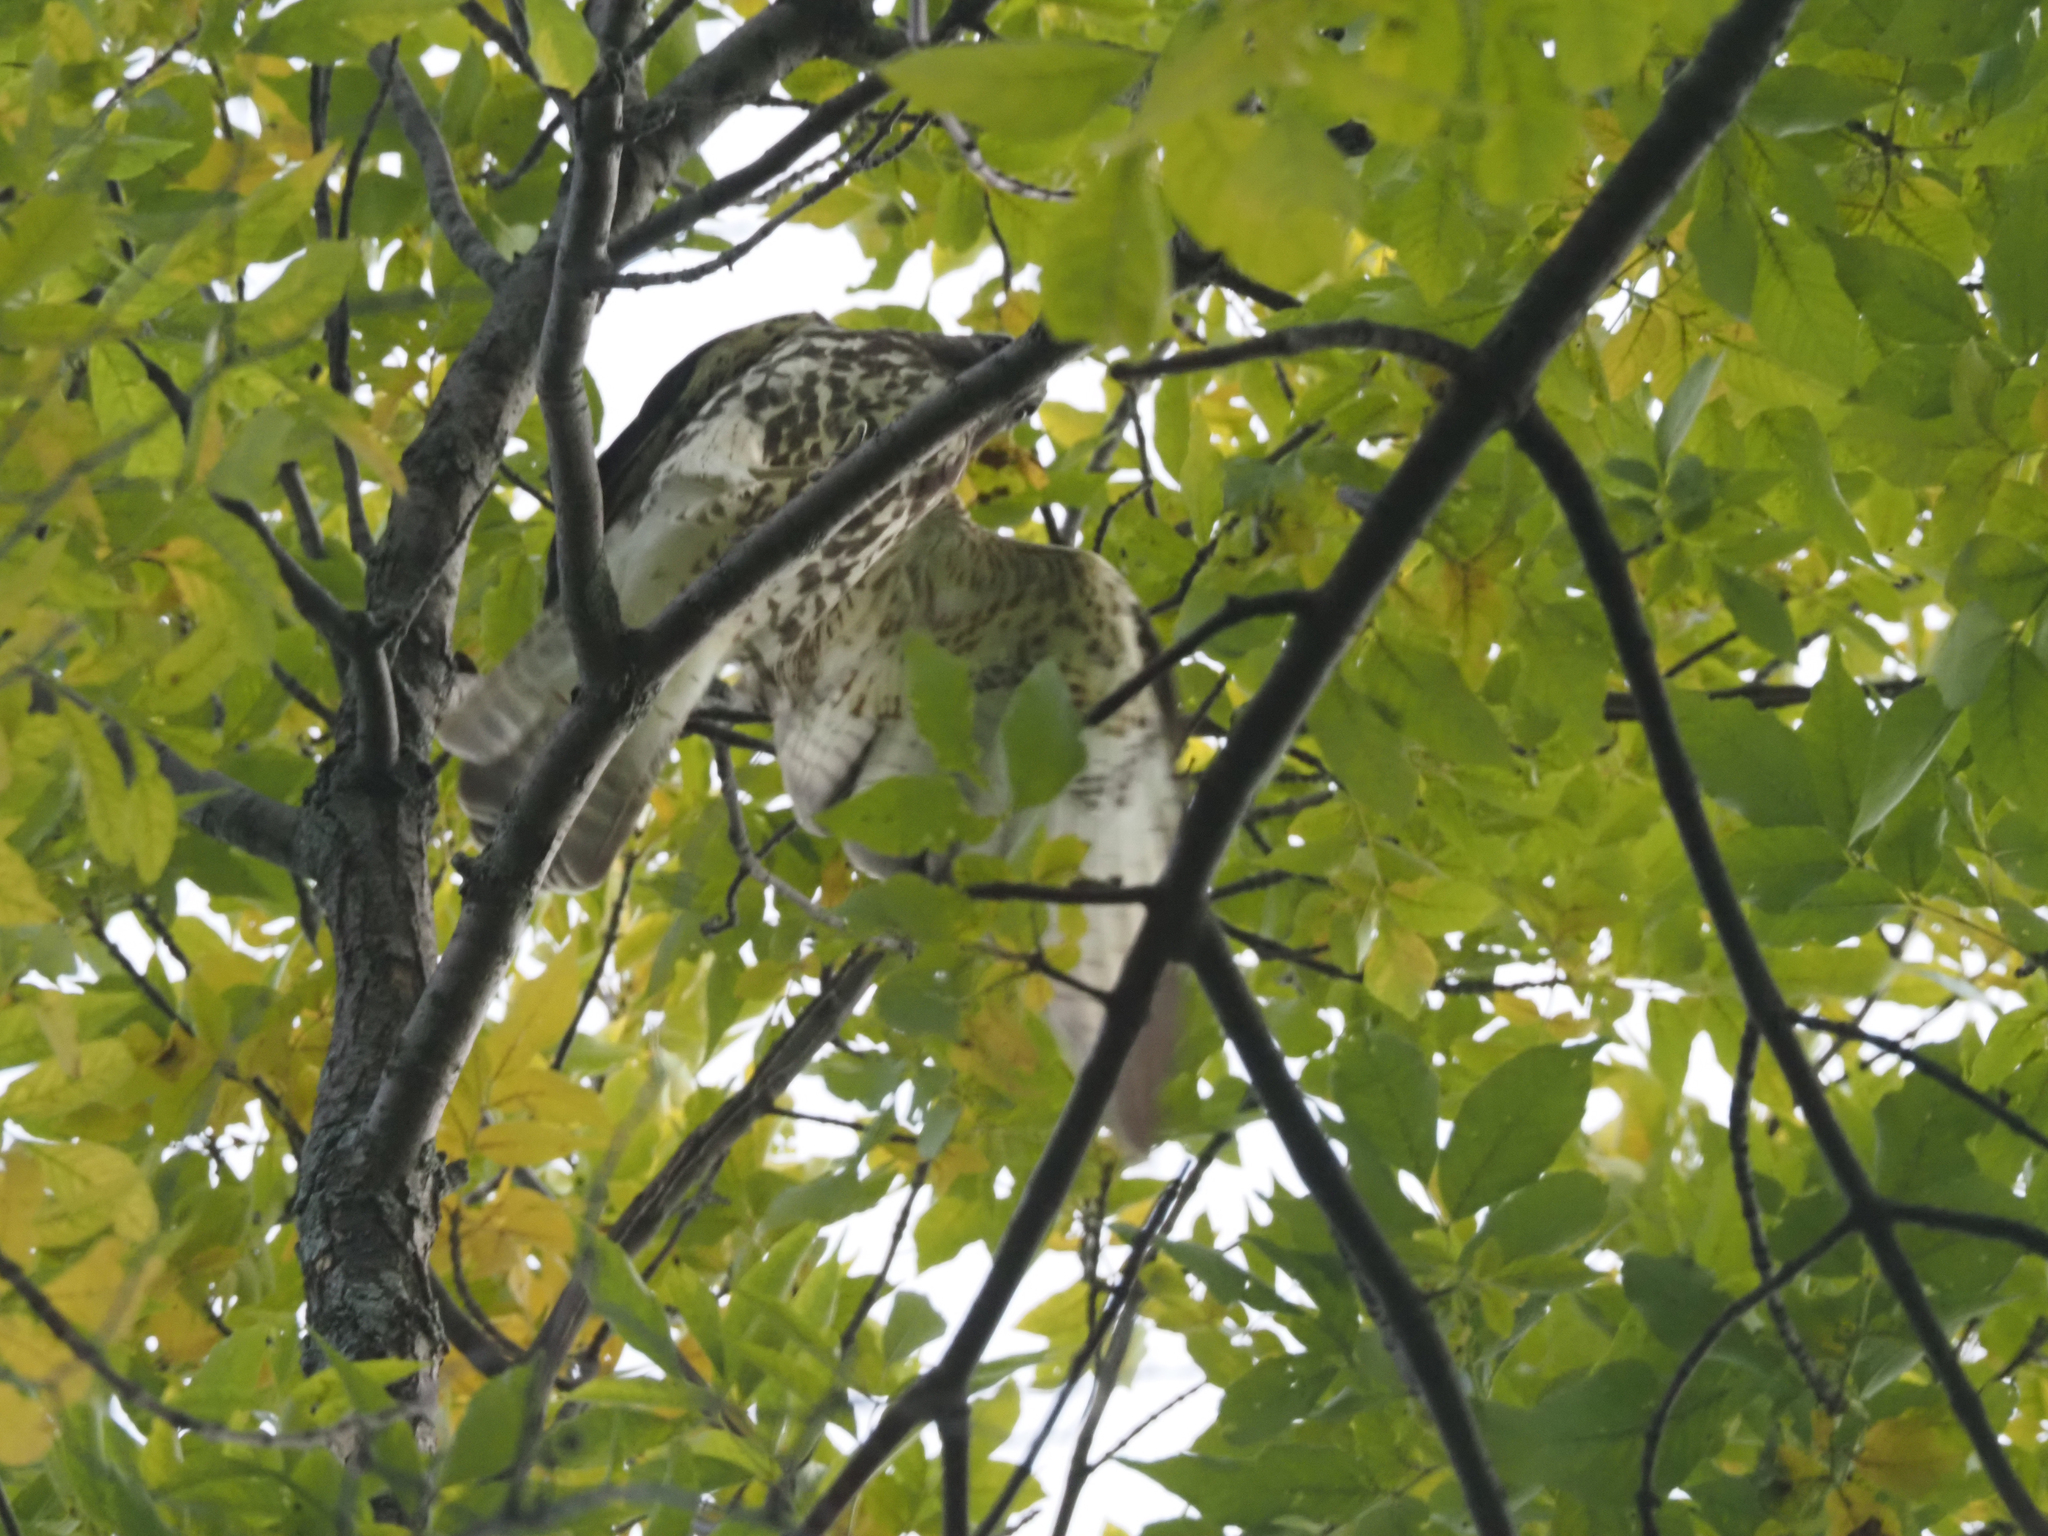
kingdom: Animalia
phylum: Chordata
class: Aves
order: Accipitriformes
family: Accipitridae
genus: Buteo
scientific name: Buteo jamaicensis
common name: Red-tailed hawk
